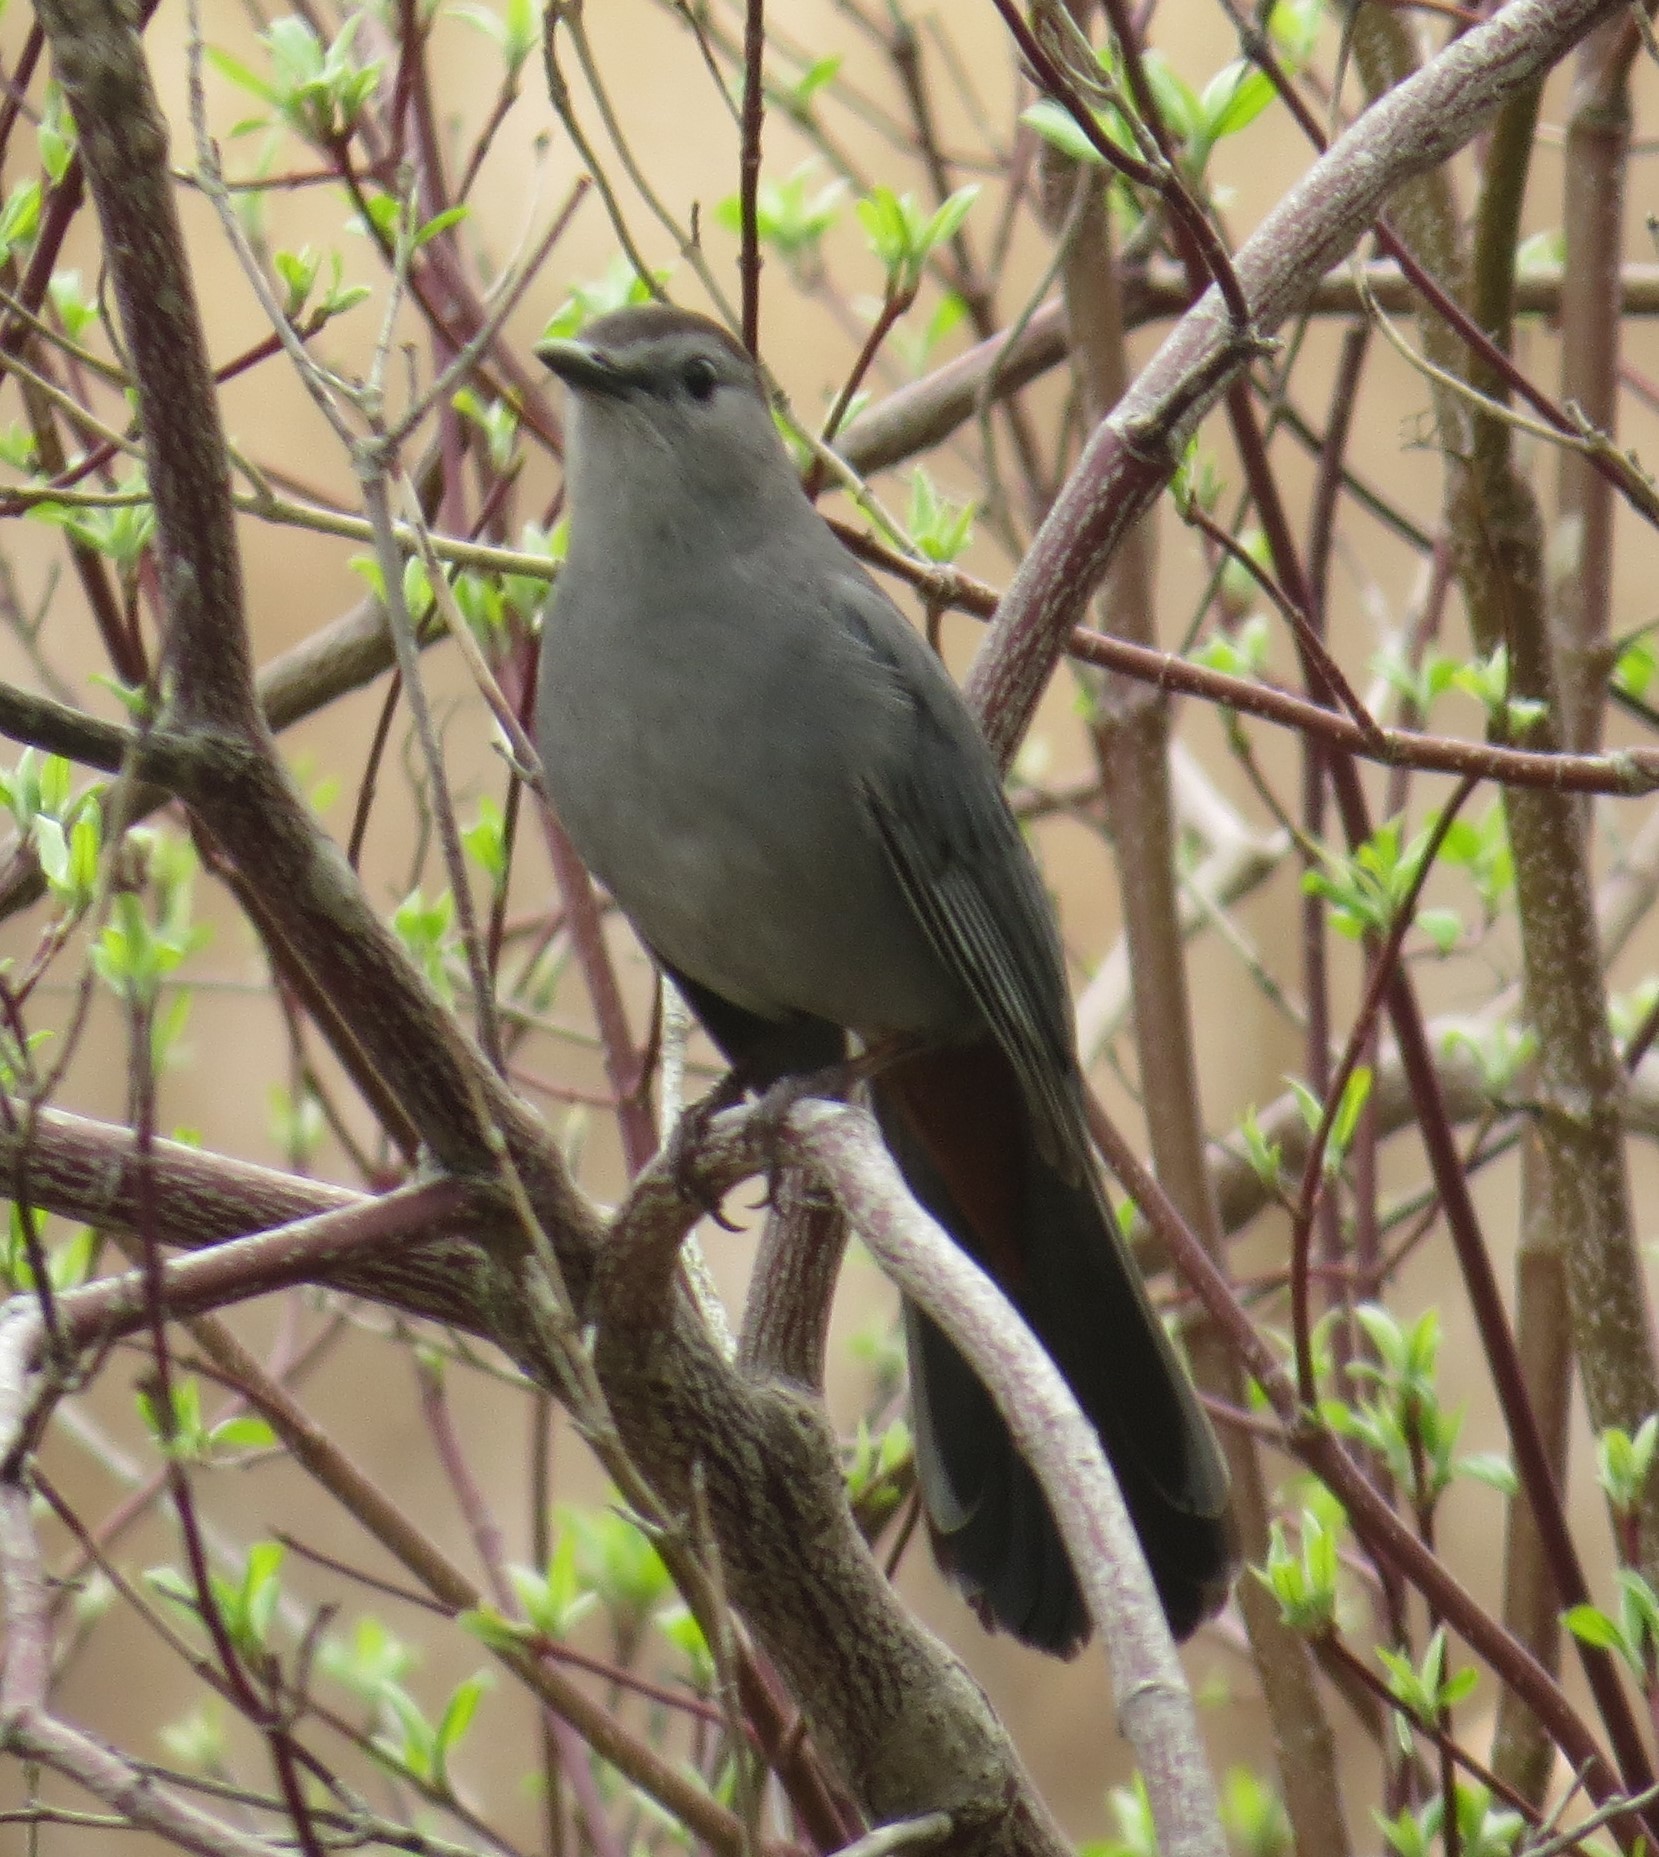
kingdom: Animalia
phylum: Chordata
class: Aves
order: Passeriformes
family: Mimidae
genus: Dumetella
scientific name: Dumetella carolinensis
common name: Gray catbird
